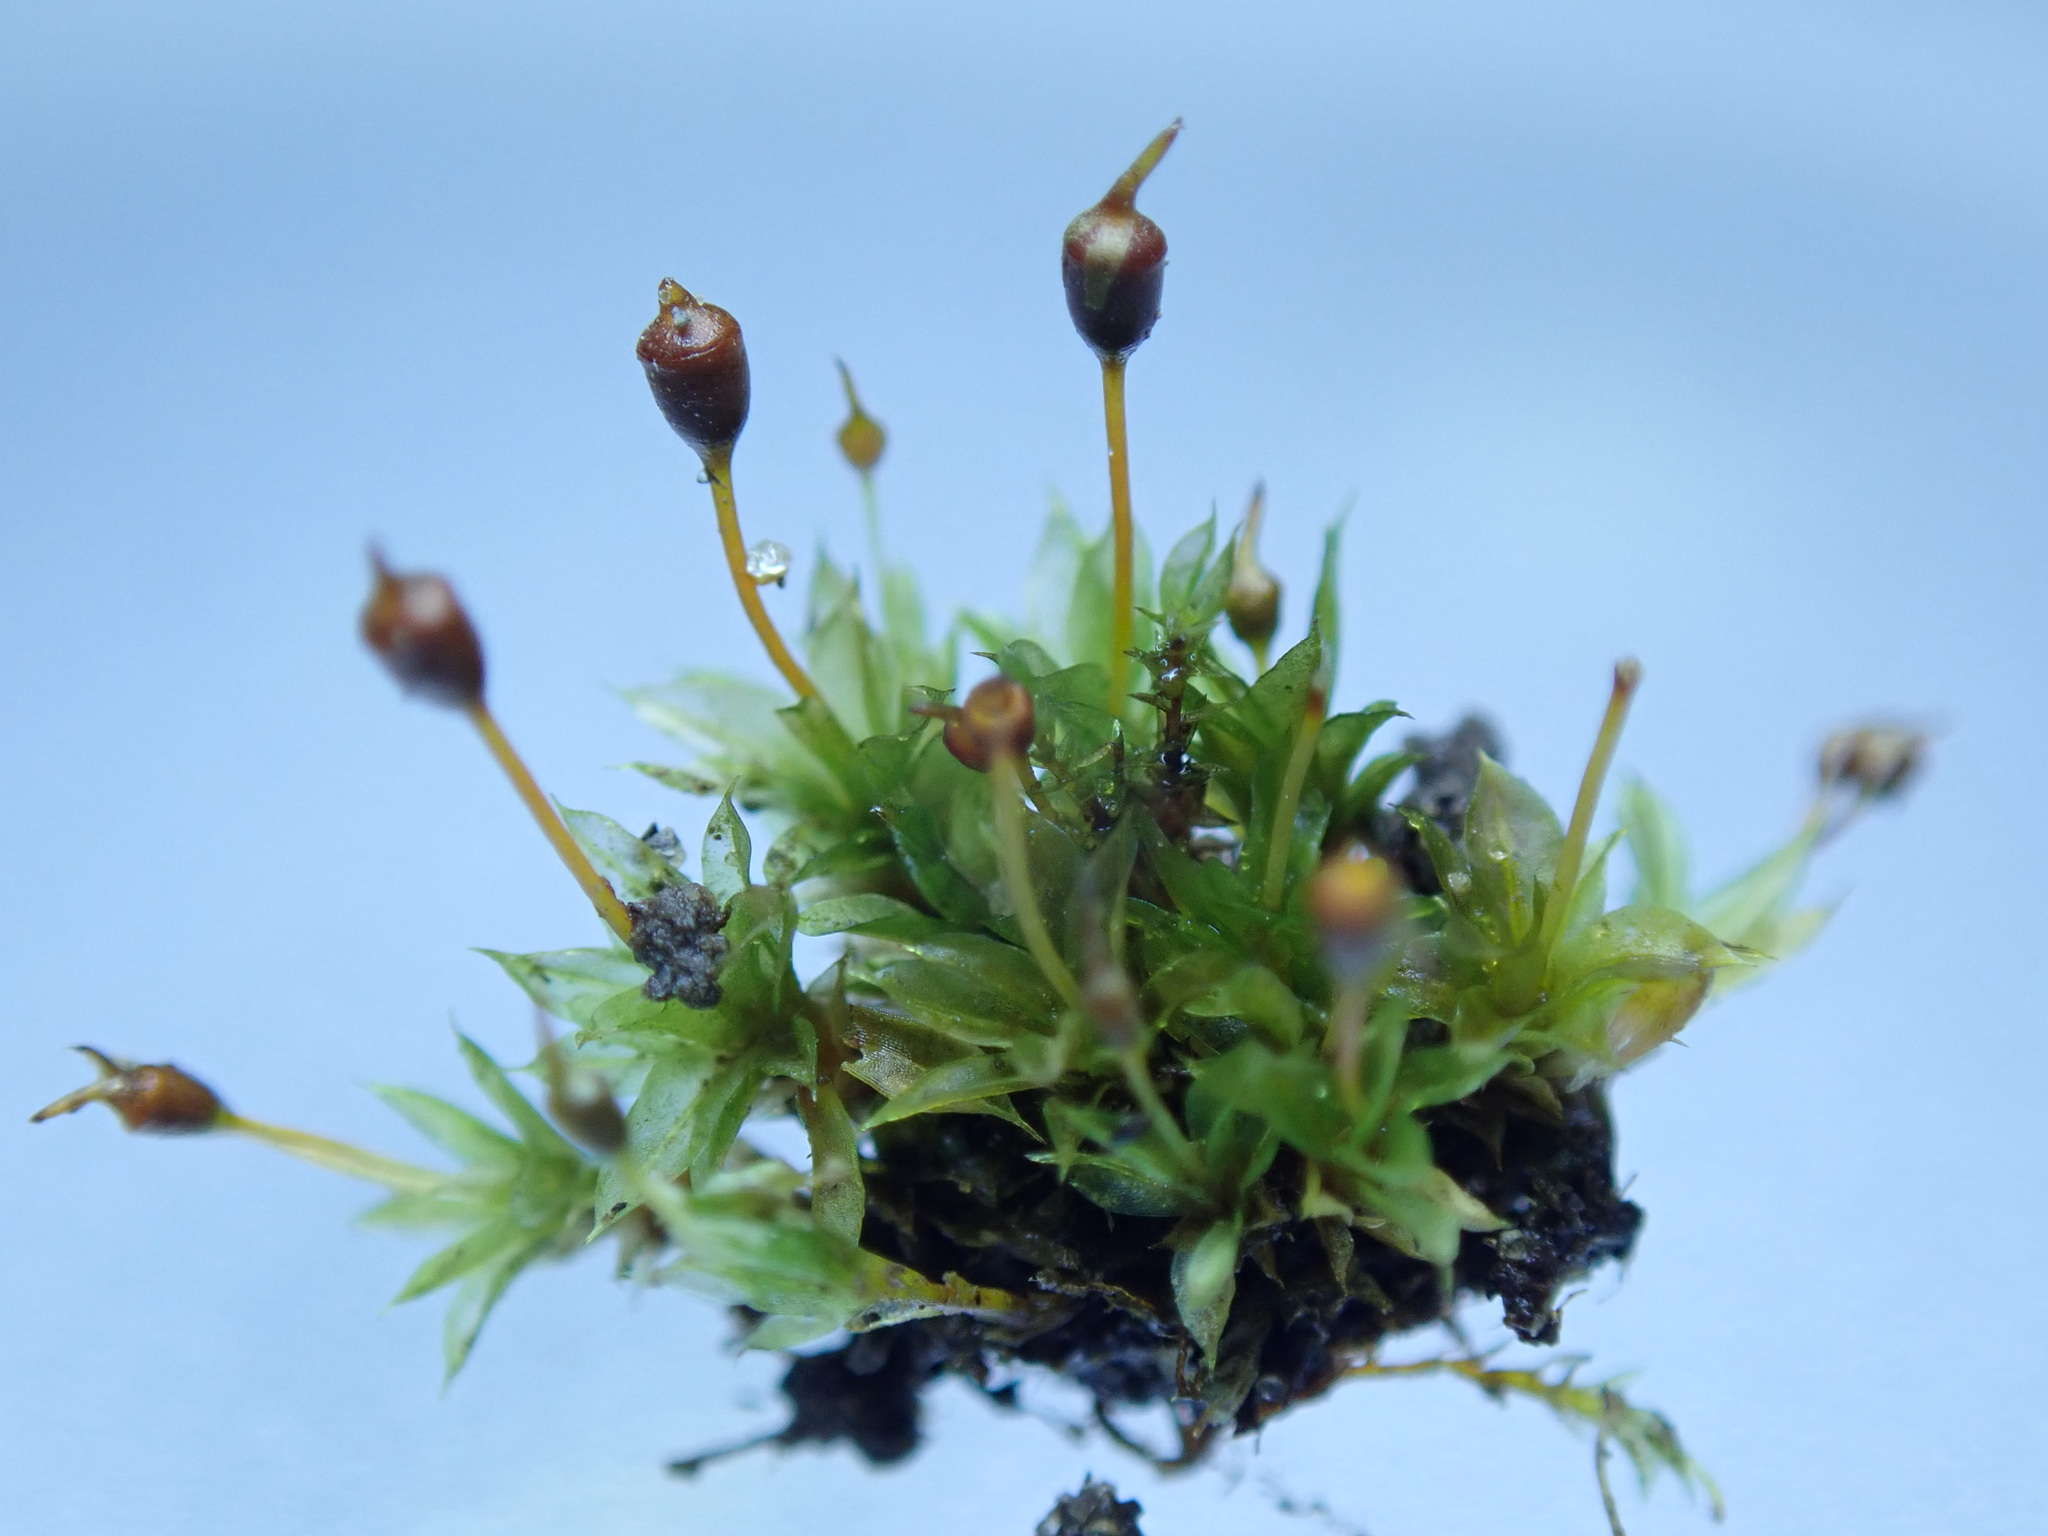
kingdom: Plantae
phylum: Bryophyta
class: Bryopsida
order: Pottiales
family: Pottiaceae
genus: Tortula
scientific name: Tortula truncata
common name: Truncated screw moss
